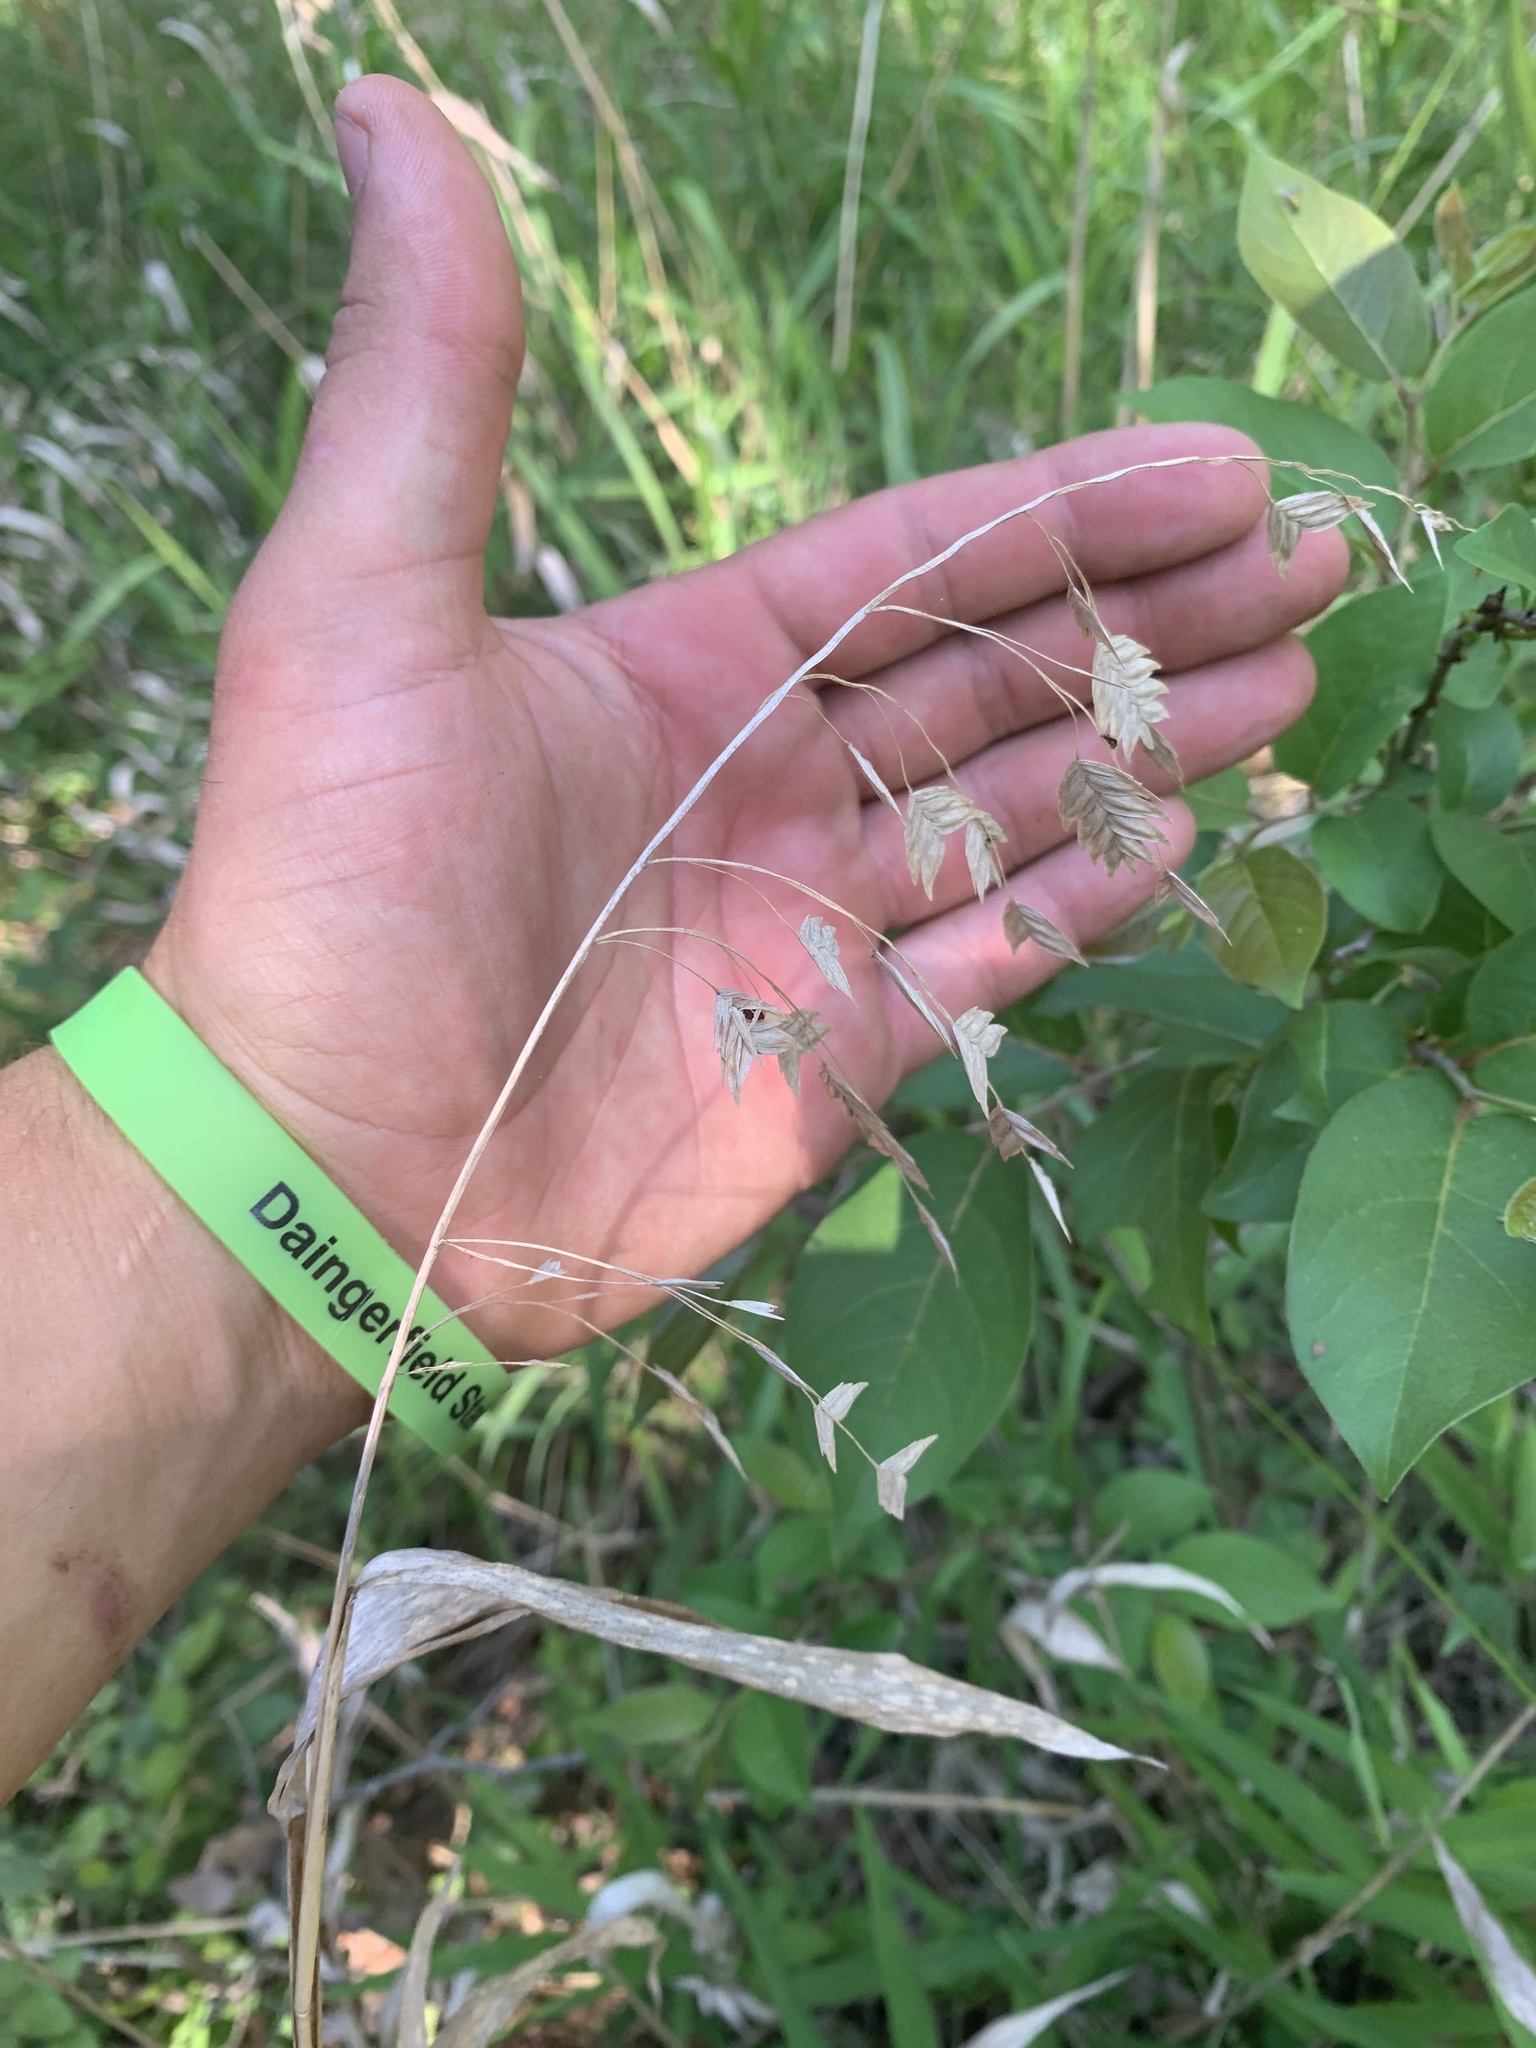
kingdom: Plantae
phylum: Tracheophyta
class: Liliopsida
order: Poales
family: Poaceae
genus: Chasmanthium
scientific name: Chasmanthium latifolium
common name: Broad-leaved chasmanthium
